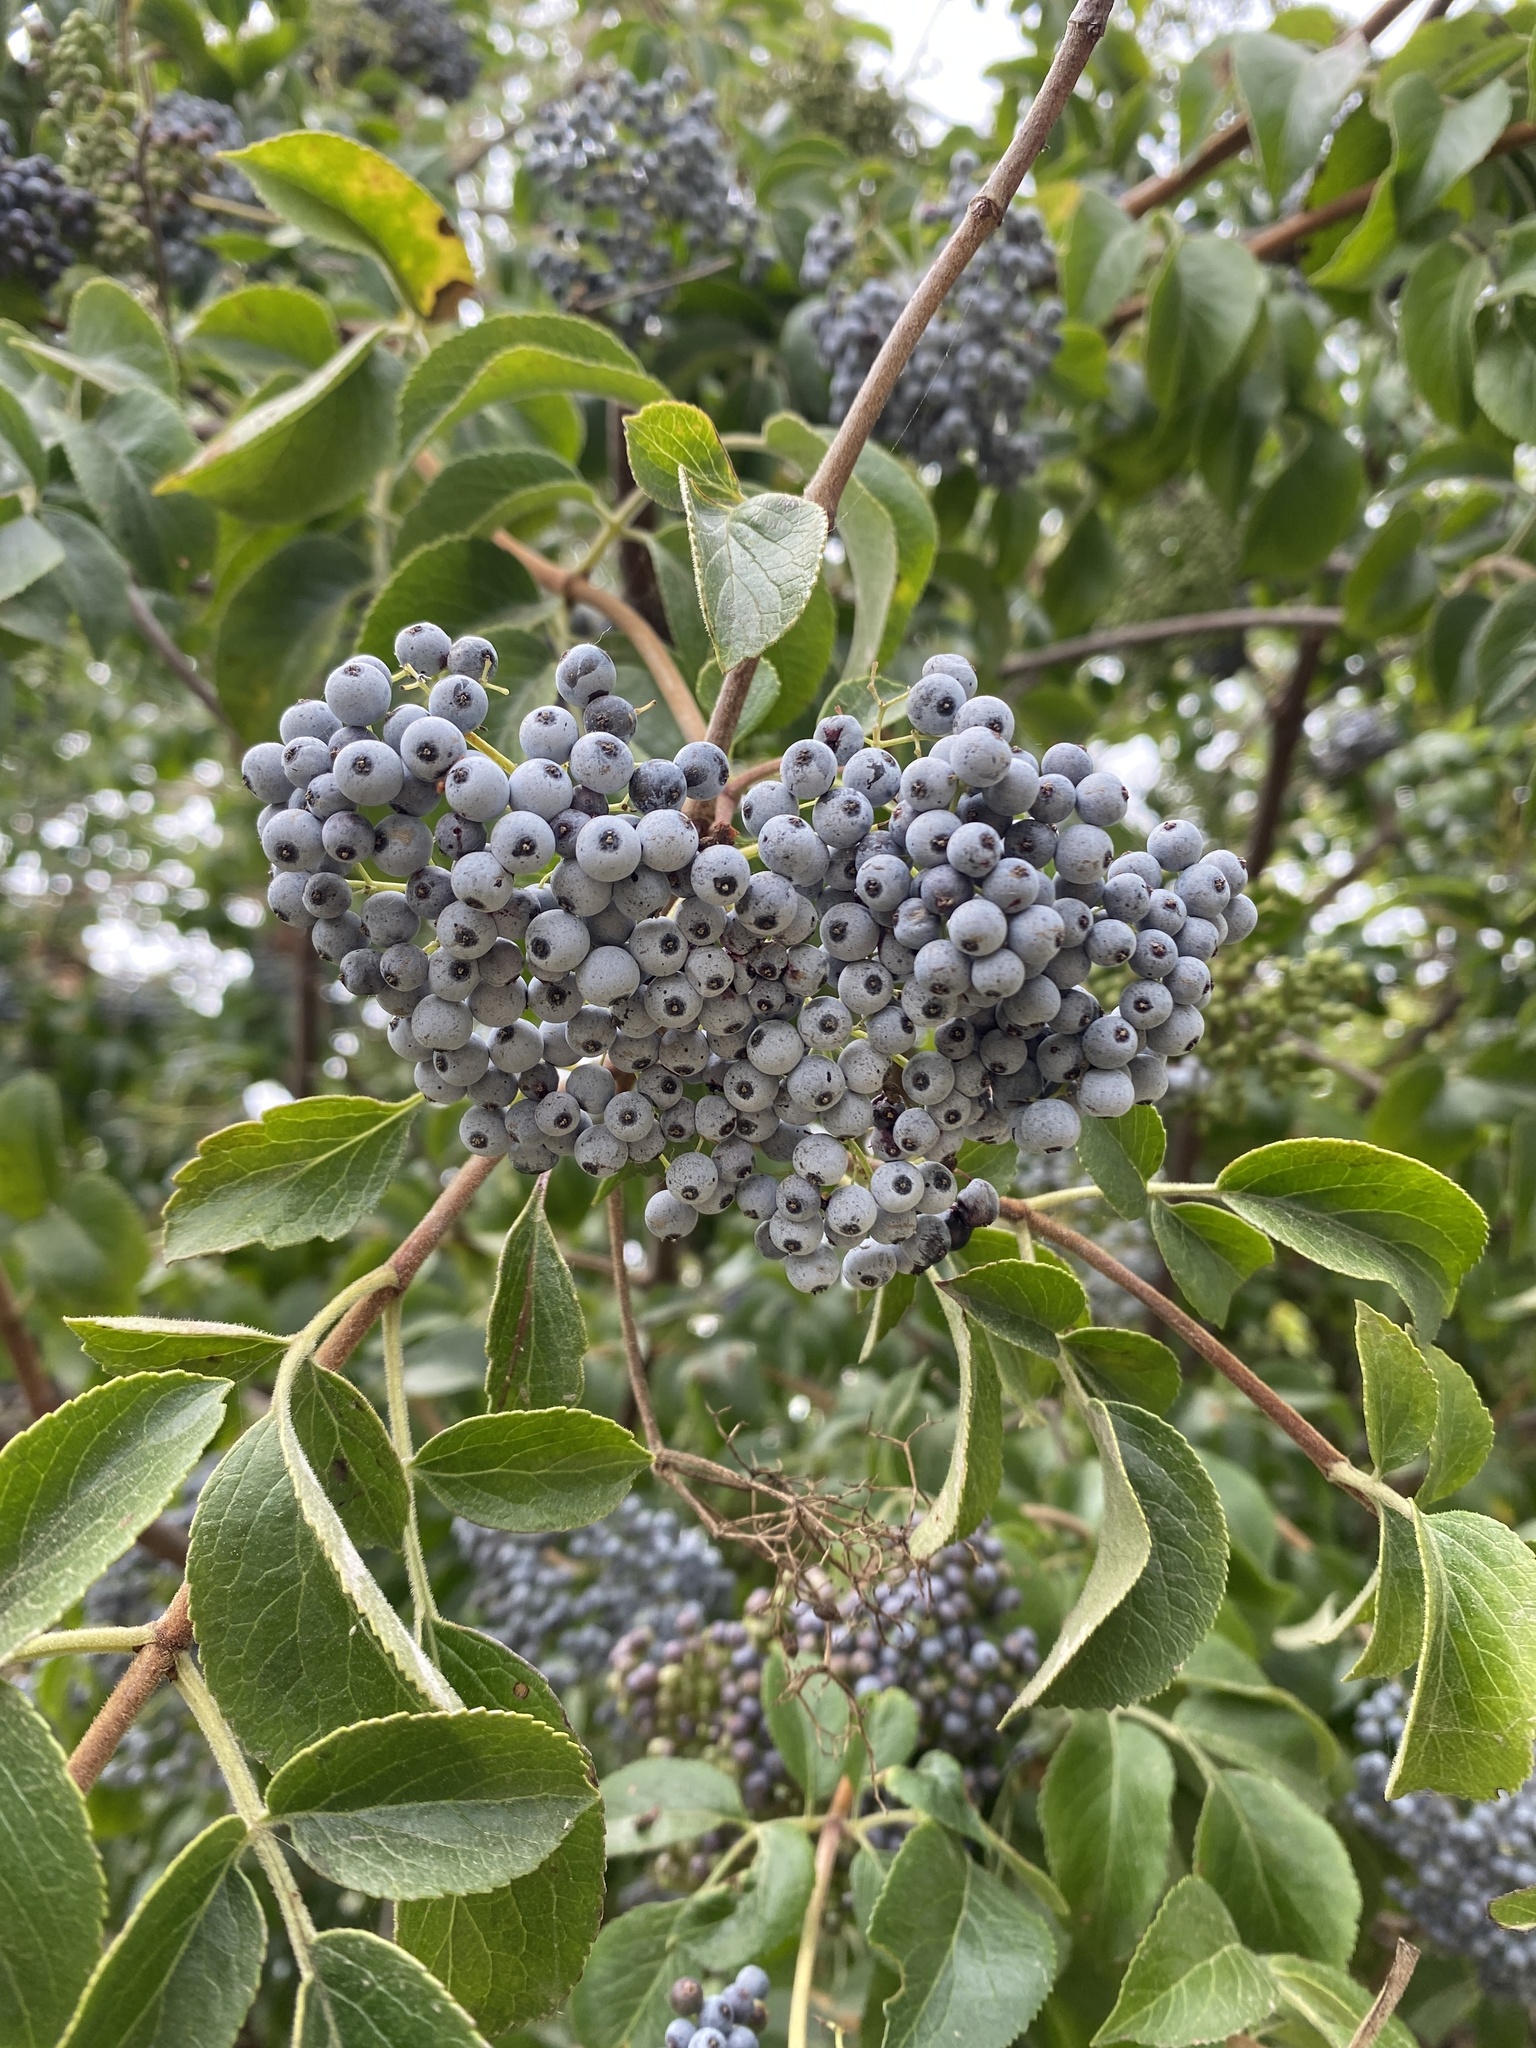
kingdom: Plantae
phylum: Tracheophyta
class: Magnoliopsida
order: Dipsacales
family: Viburnaceae
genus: Sambucus
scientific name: Sambucus cerulea
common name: Blue elder
